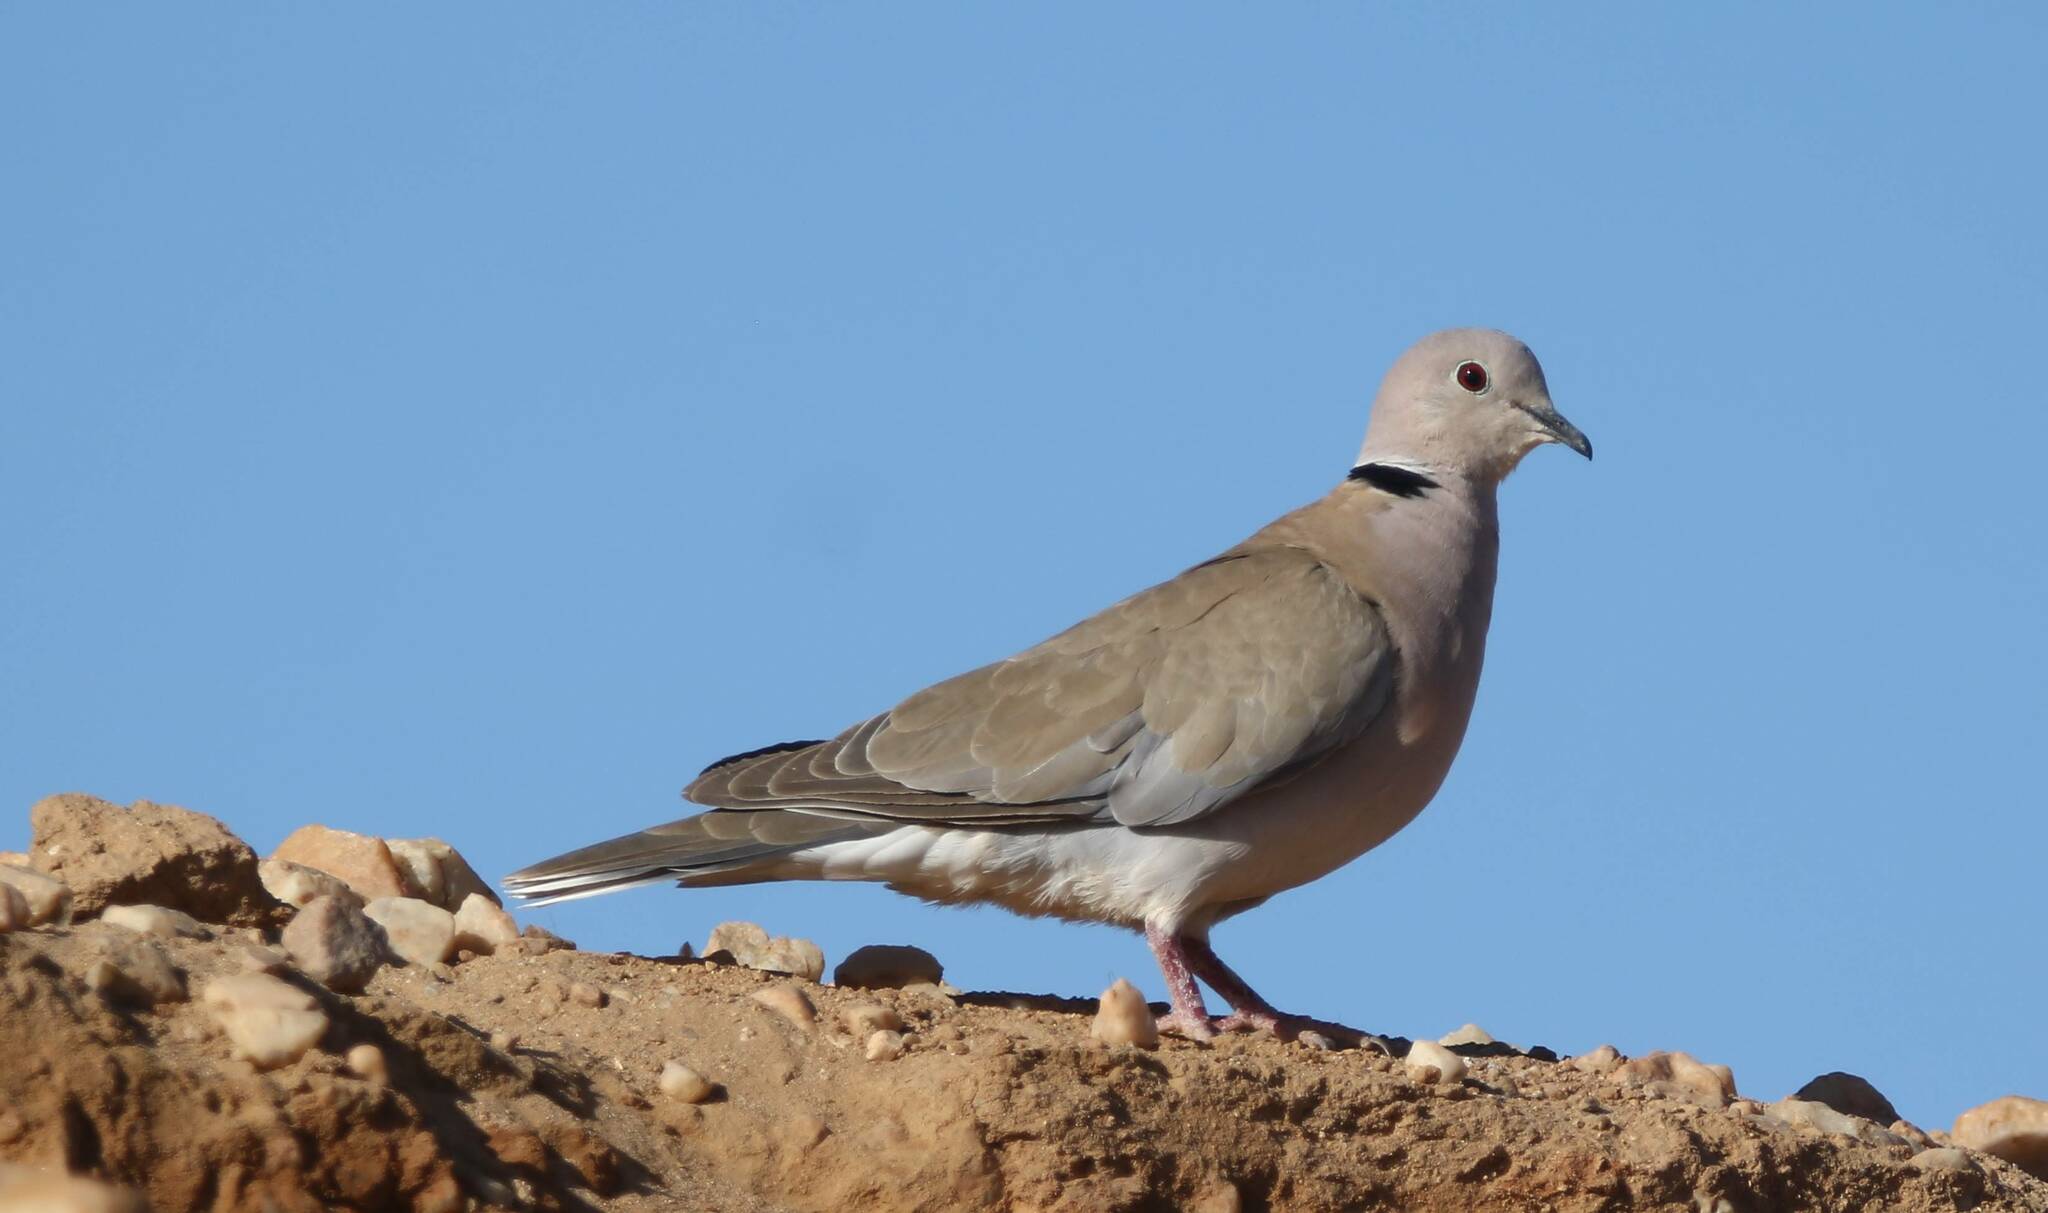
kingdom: Animalia
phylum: Chordata
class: Aves
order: Columbiformes
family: Columbidae
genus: Streptopelia
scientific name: Streptopelia roseogrisea
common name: African collared dove
